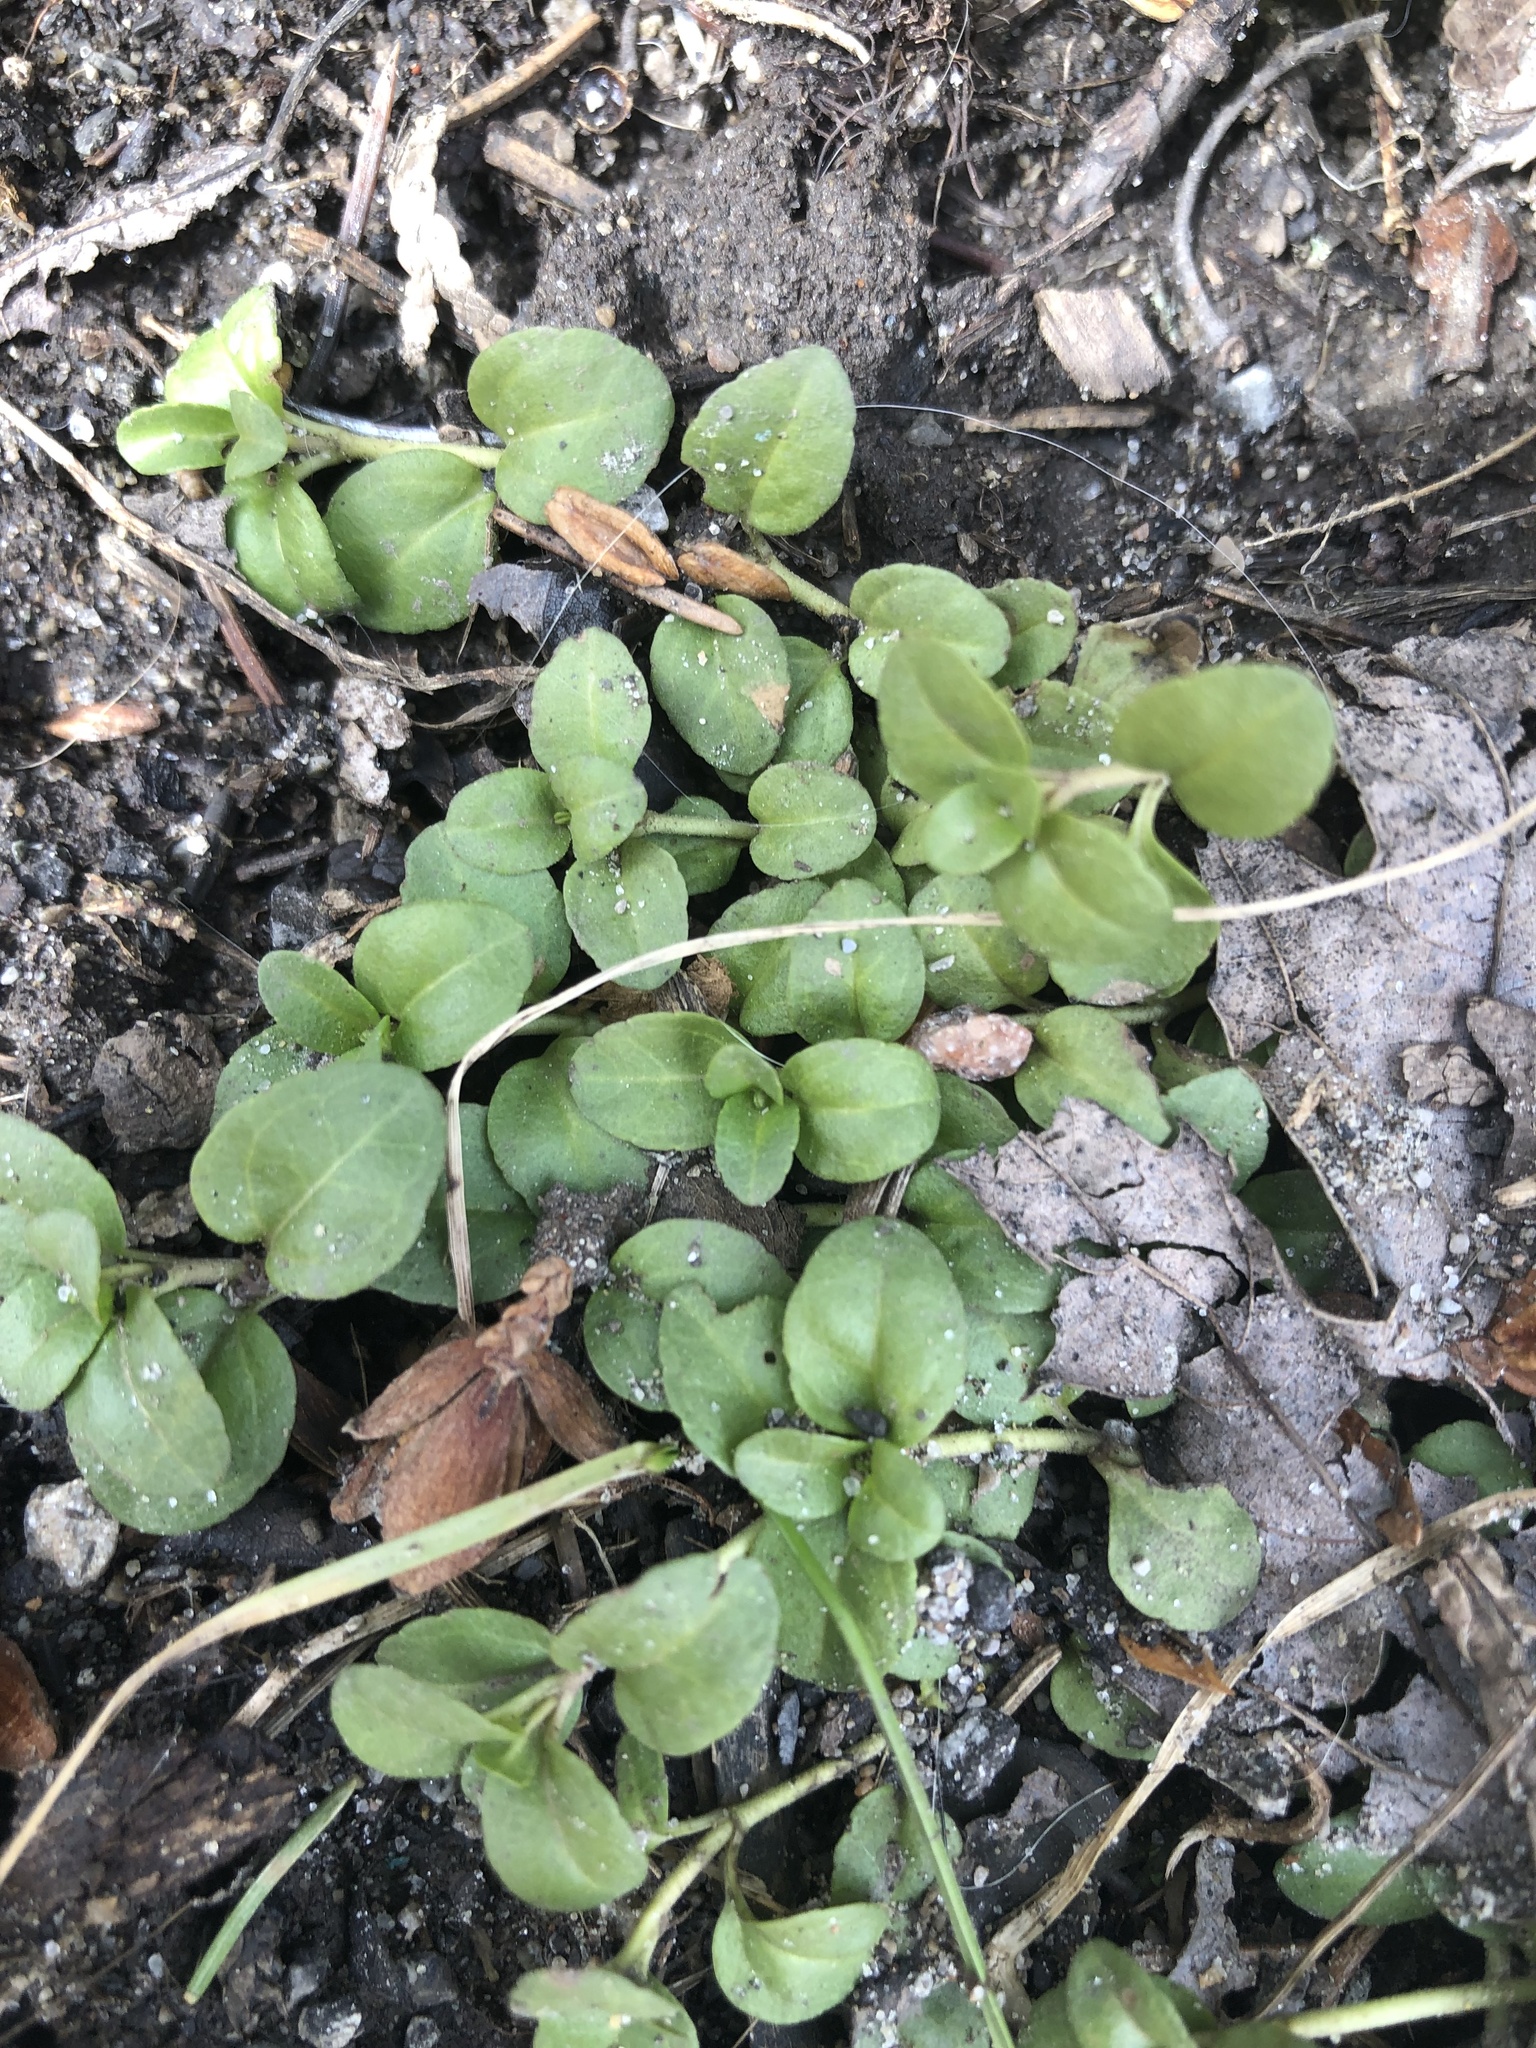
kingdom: Plantae
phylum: Tracheophyta
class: Magnoliopsida
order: Lamiales
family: Plantaginaceae
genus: Veronica
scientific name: Veronica serpyllifolia
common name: Thyme-leaved speedwell
